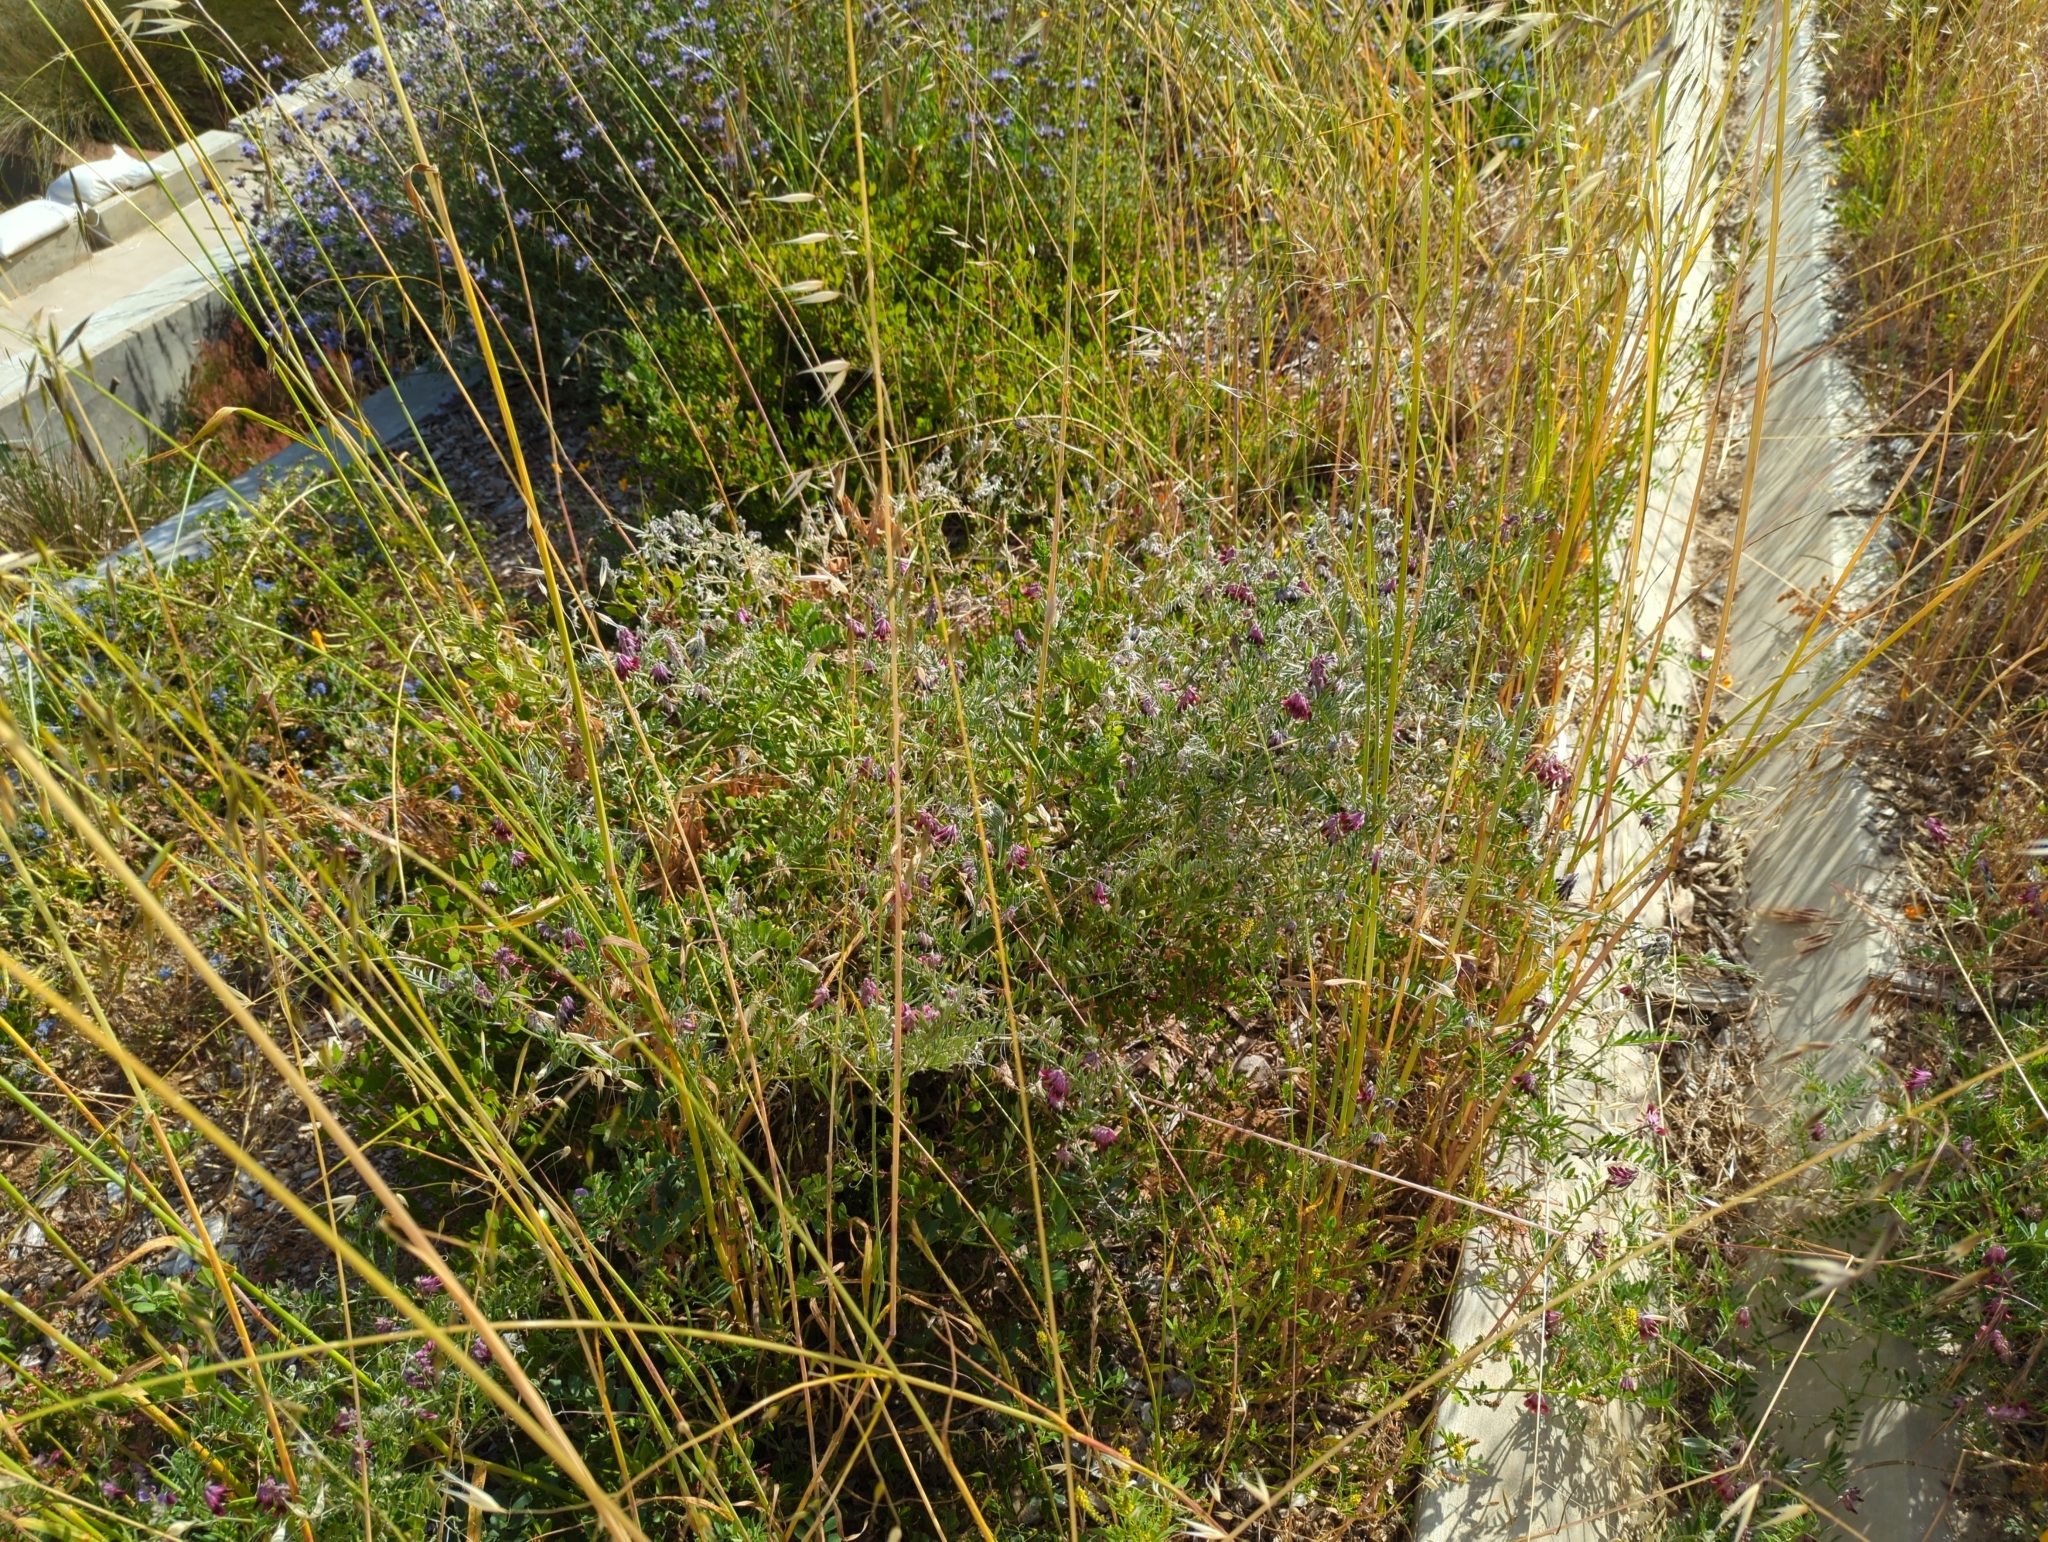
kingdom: Plantae
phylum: Tracheophyta
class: Magnoliopsida
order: Fabales
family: Fabaceae
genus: Vicia
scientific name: Vicia benghalensis
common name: Purple vetch
